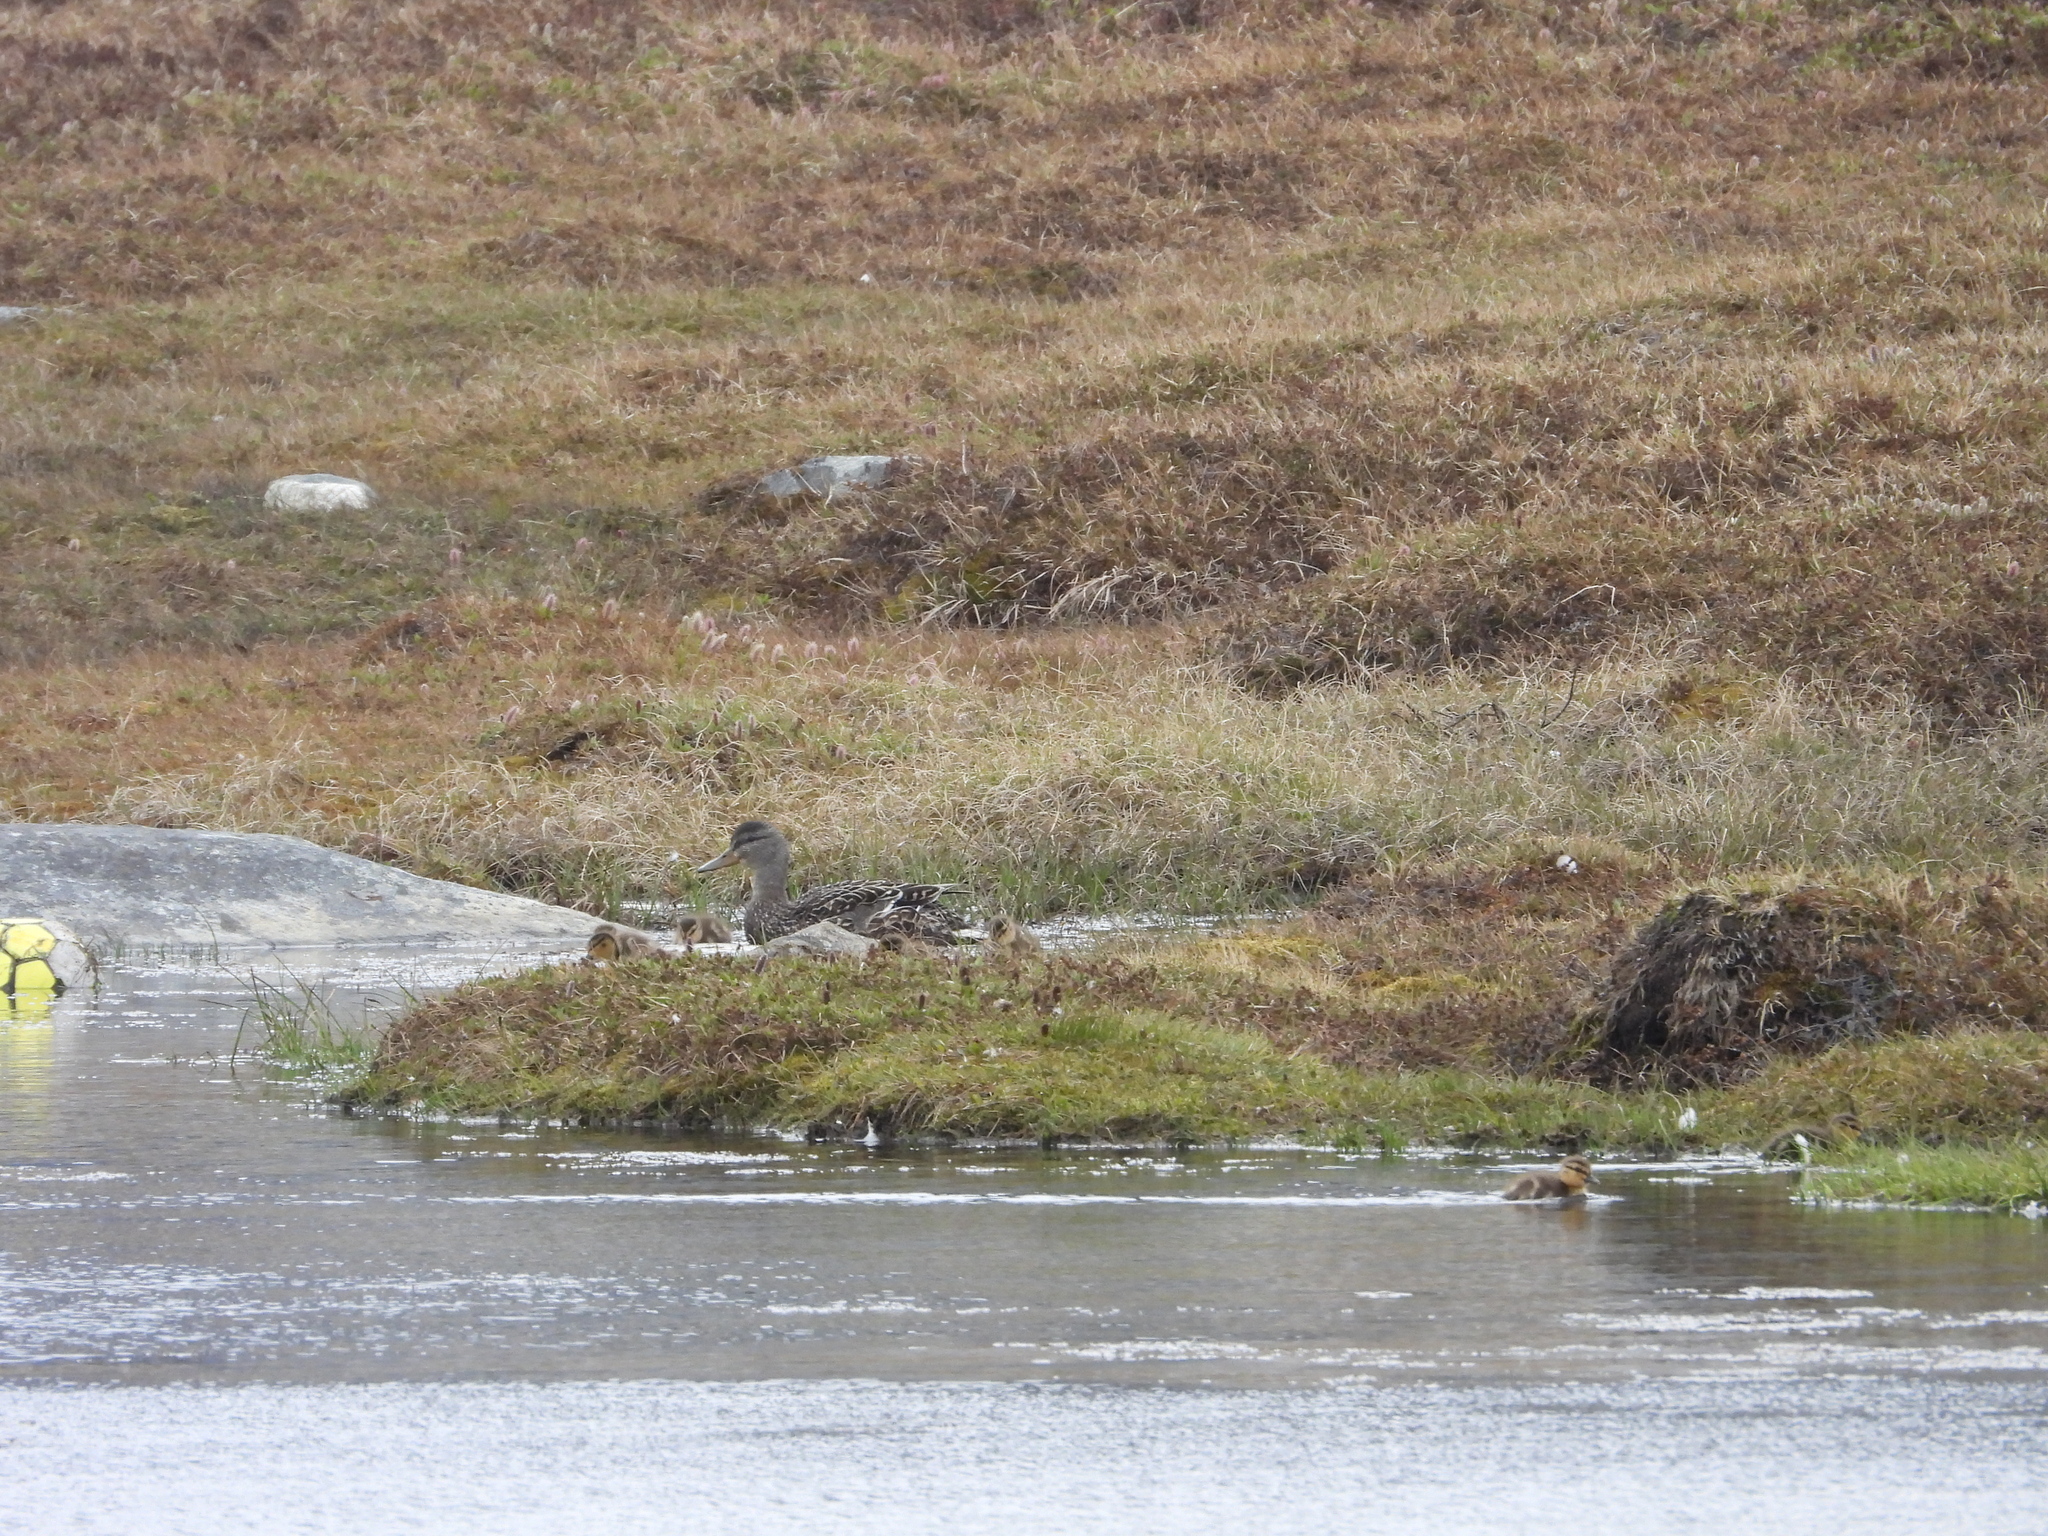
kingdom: Animalia
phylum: Chordata
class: Aves
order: Anseriformes
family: Anatidae
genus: Anas
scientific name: Anas platyrhynchos
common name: Mallard
